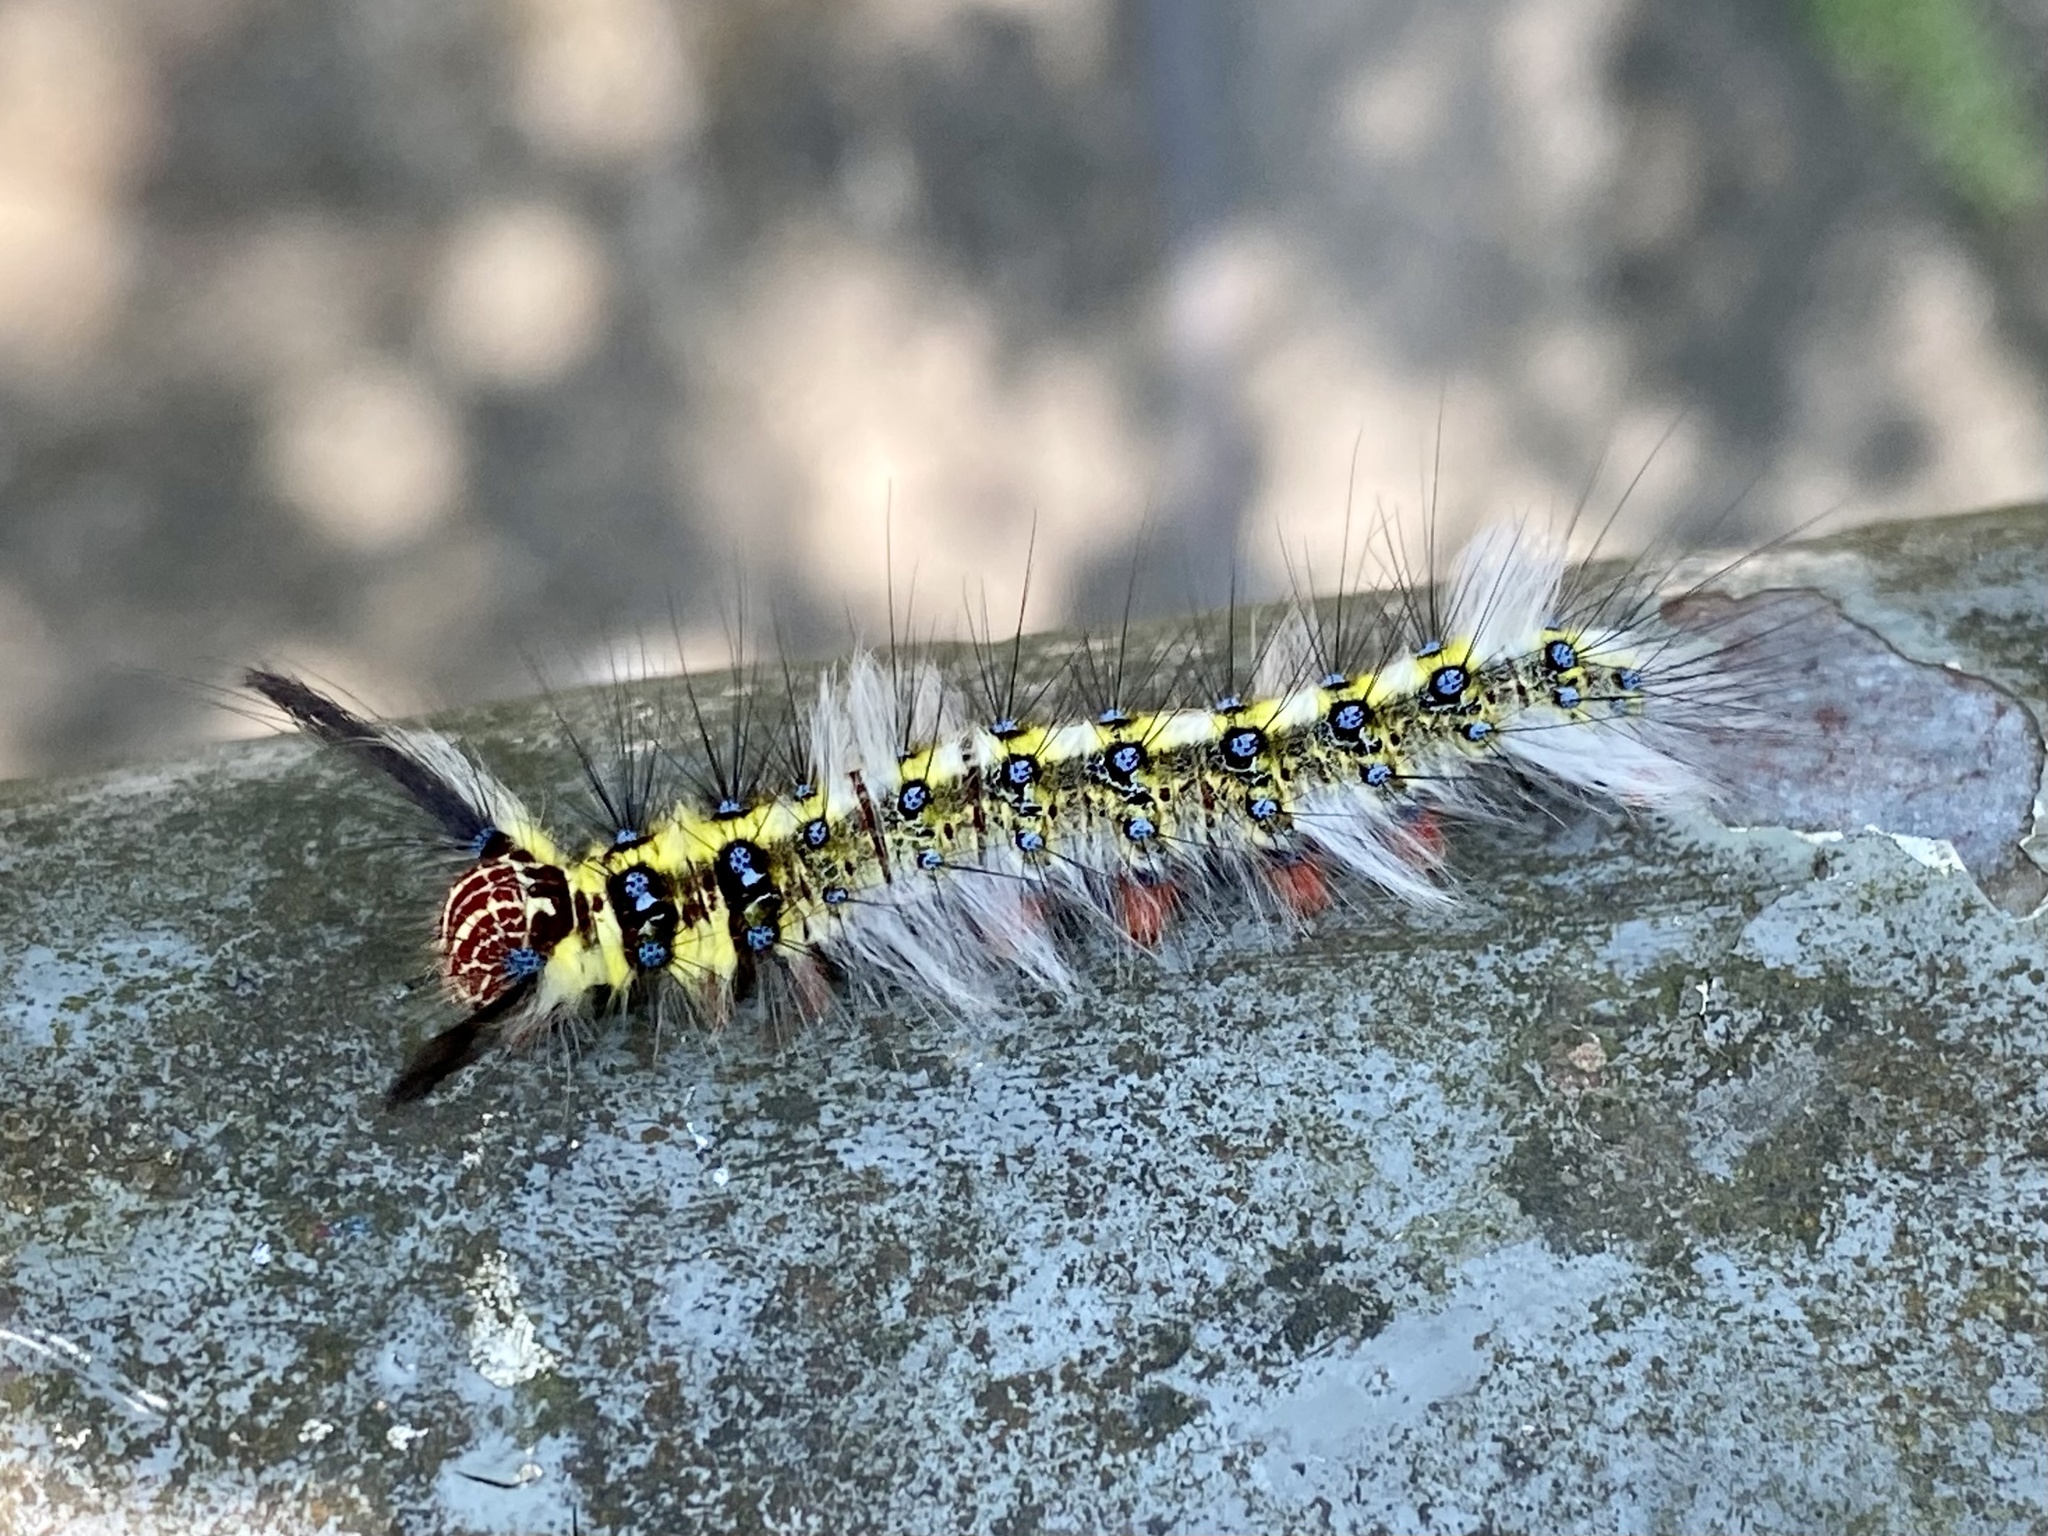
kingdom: Animalia
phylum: Arthropoda
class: Insecta
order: Lepidoptera
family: Lasiocampidae
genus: Trabala
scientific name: Trabala pallida
